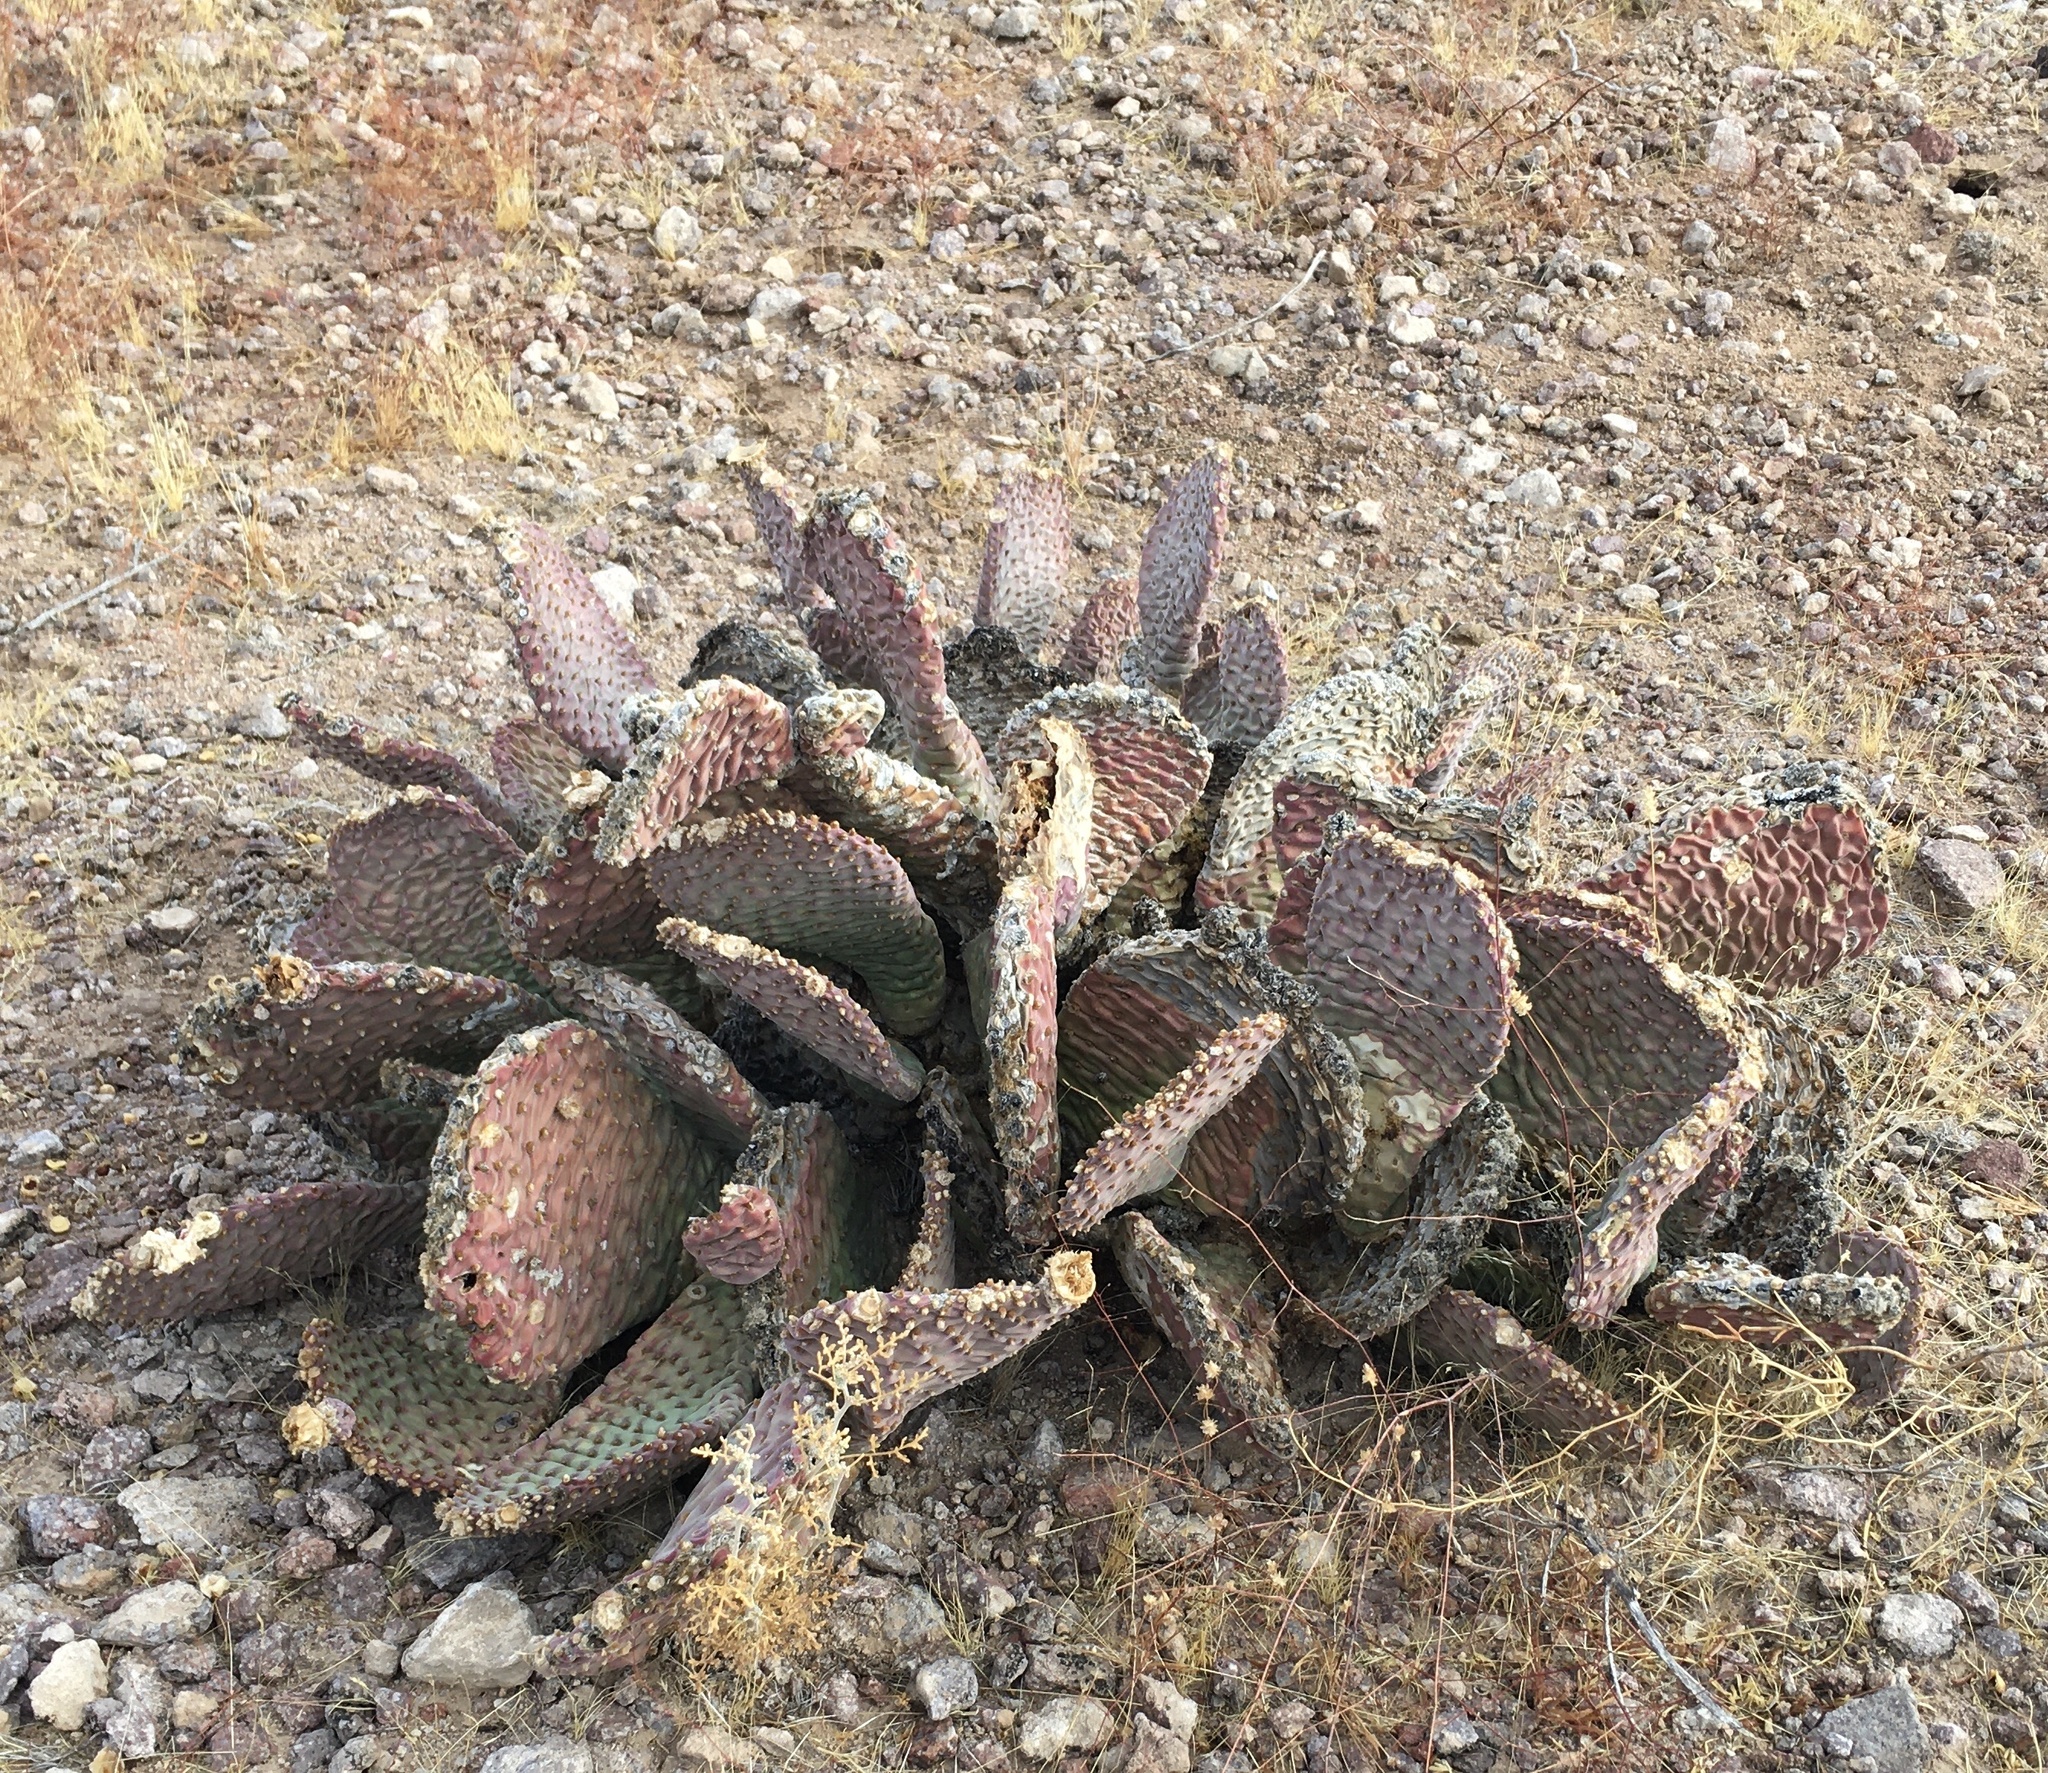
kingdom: Plantae
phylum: Tracheophyta
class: Magnoliopsida
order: Caryophyllales
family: Cactaceae
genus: Opuntia
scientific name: Opuntia basilaris
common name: Beavertail prickly-pear
